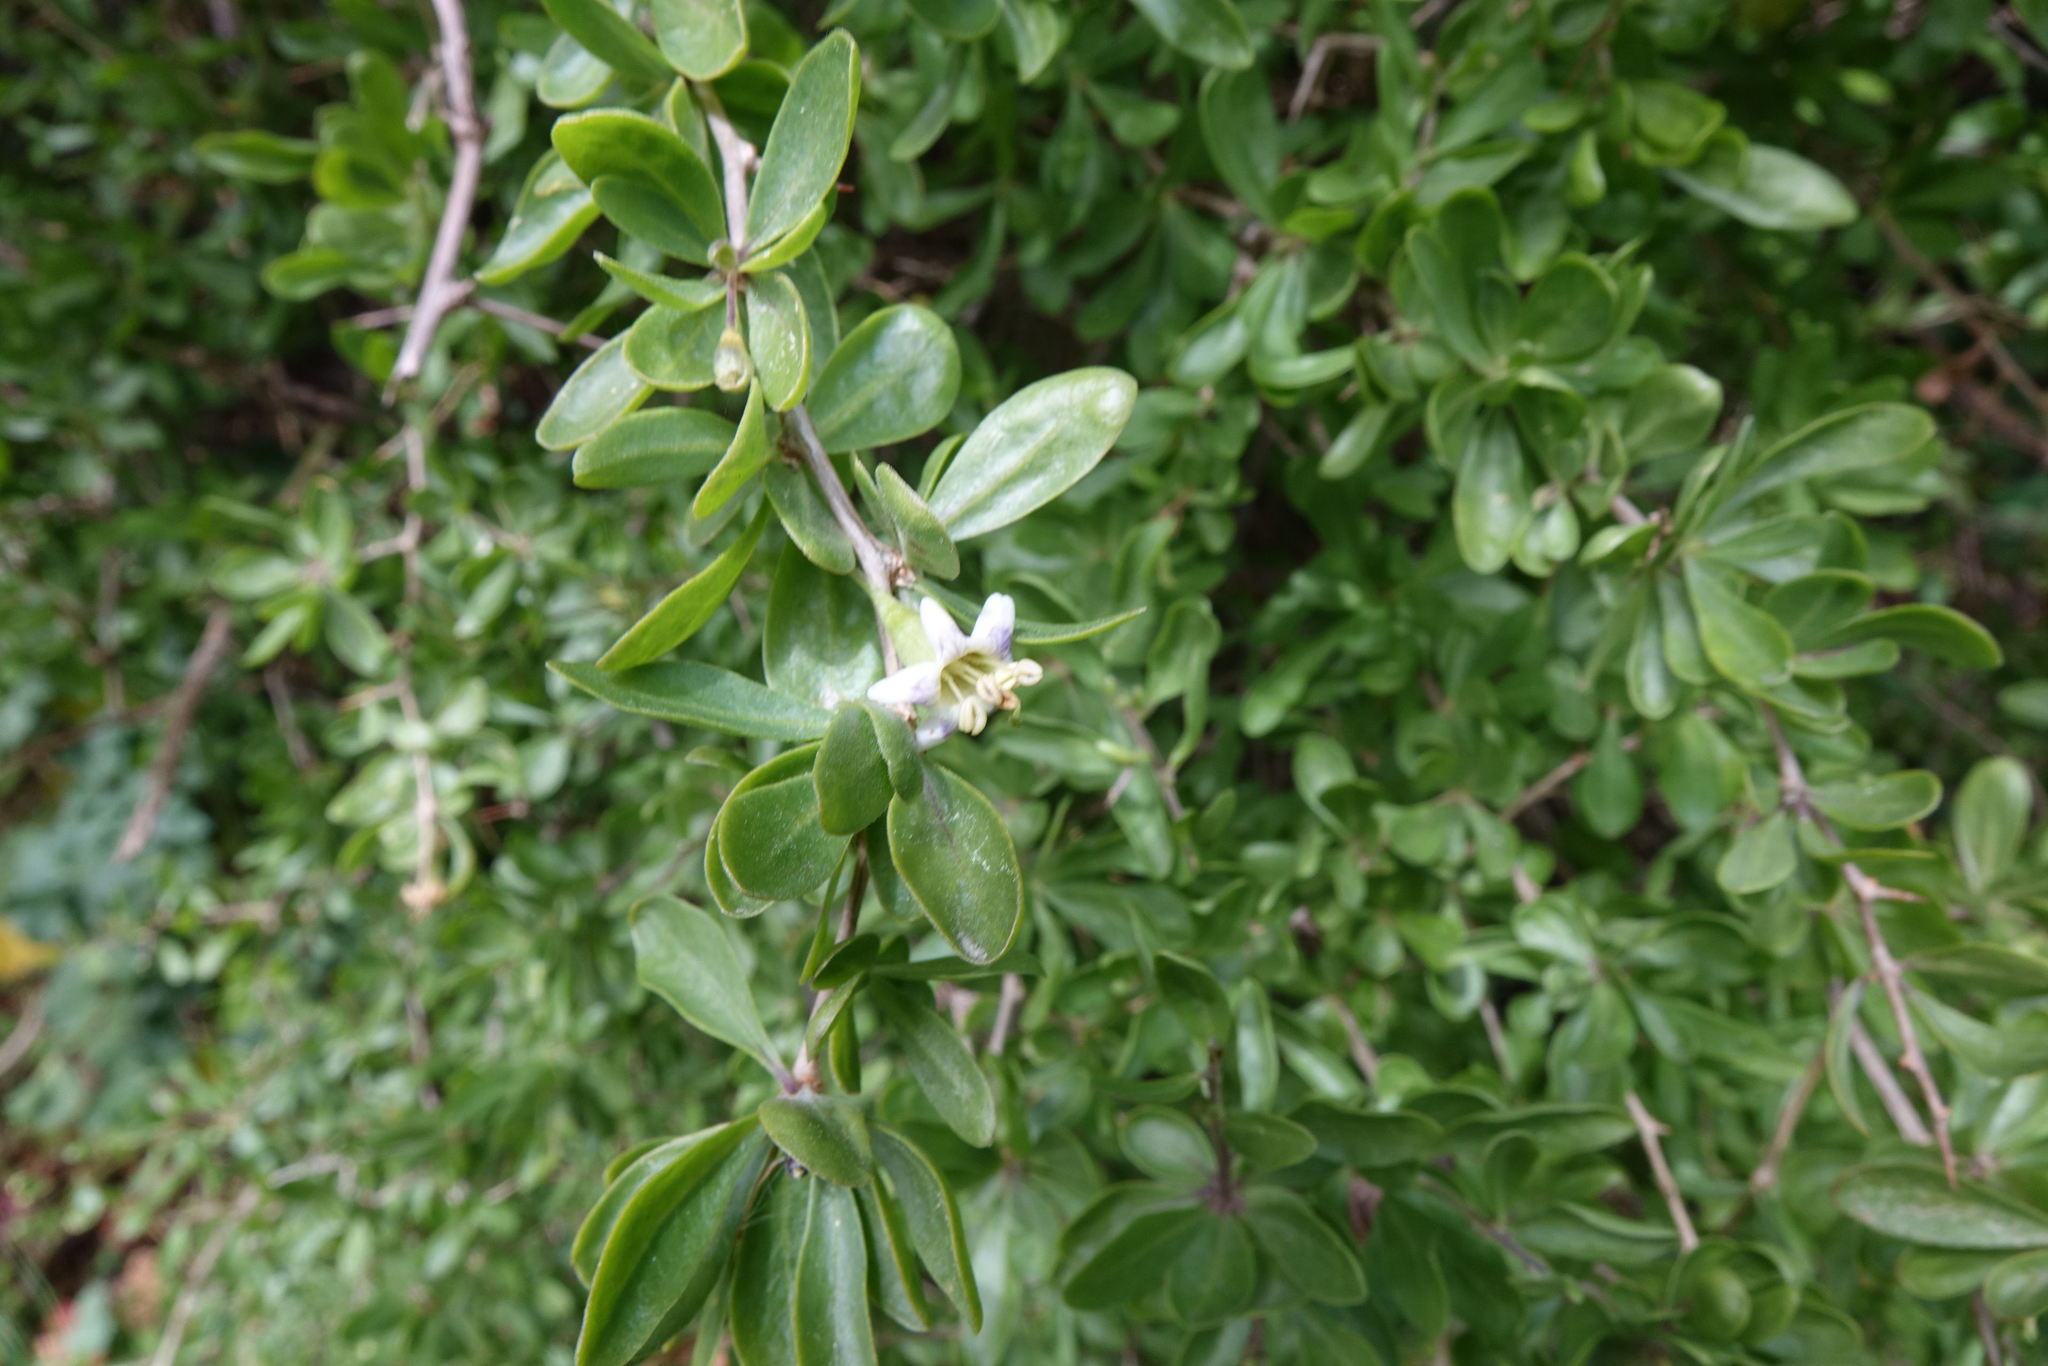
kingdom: Plantae
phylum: Tracheophyta
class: Magnoliopsida
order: Solanales
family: Solanaceae
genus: Lycium
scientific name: Lycium ferocissimum
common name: African boxthorn
